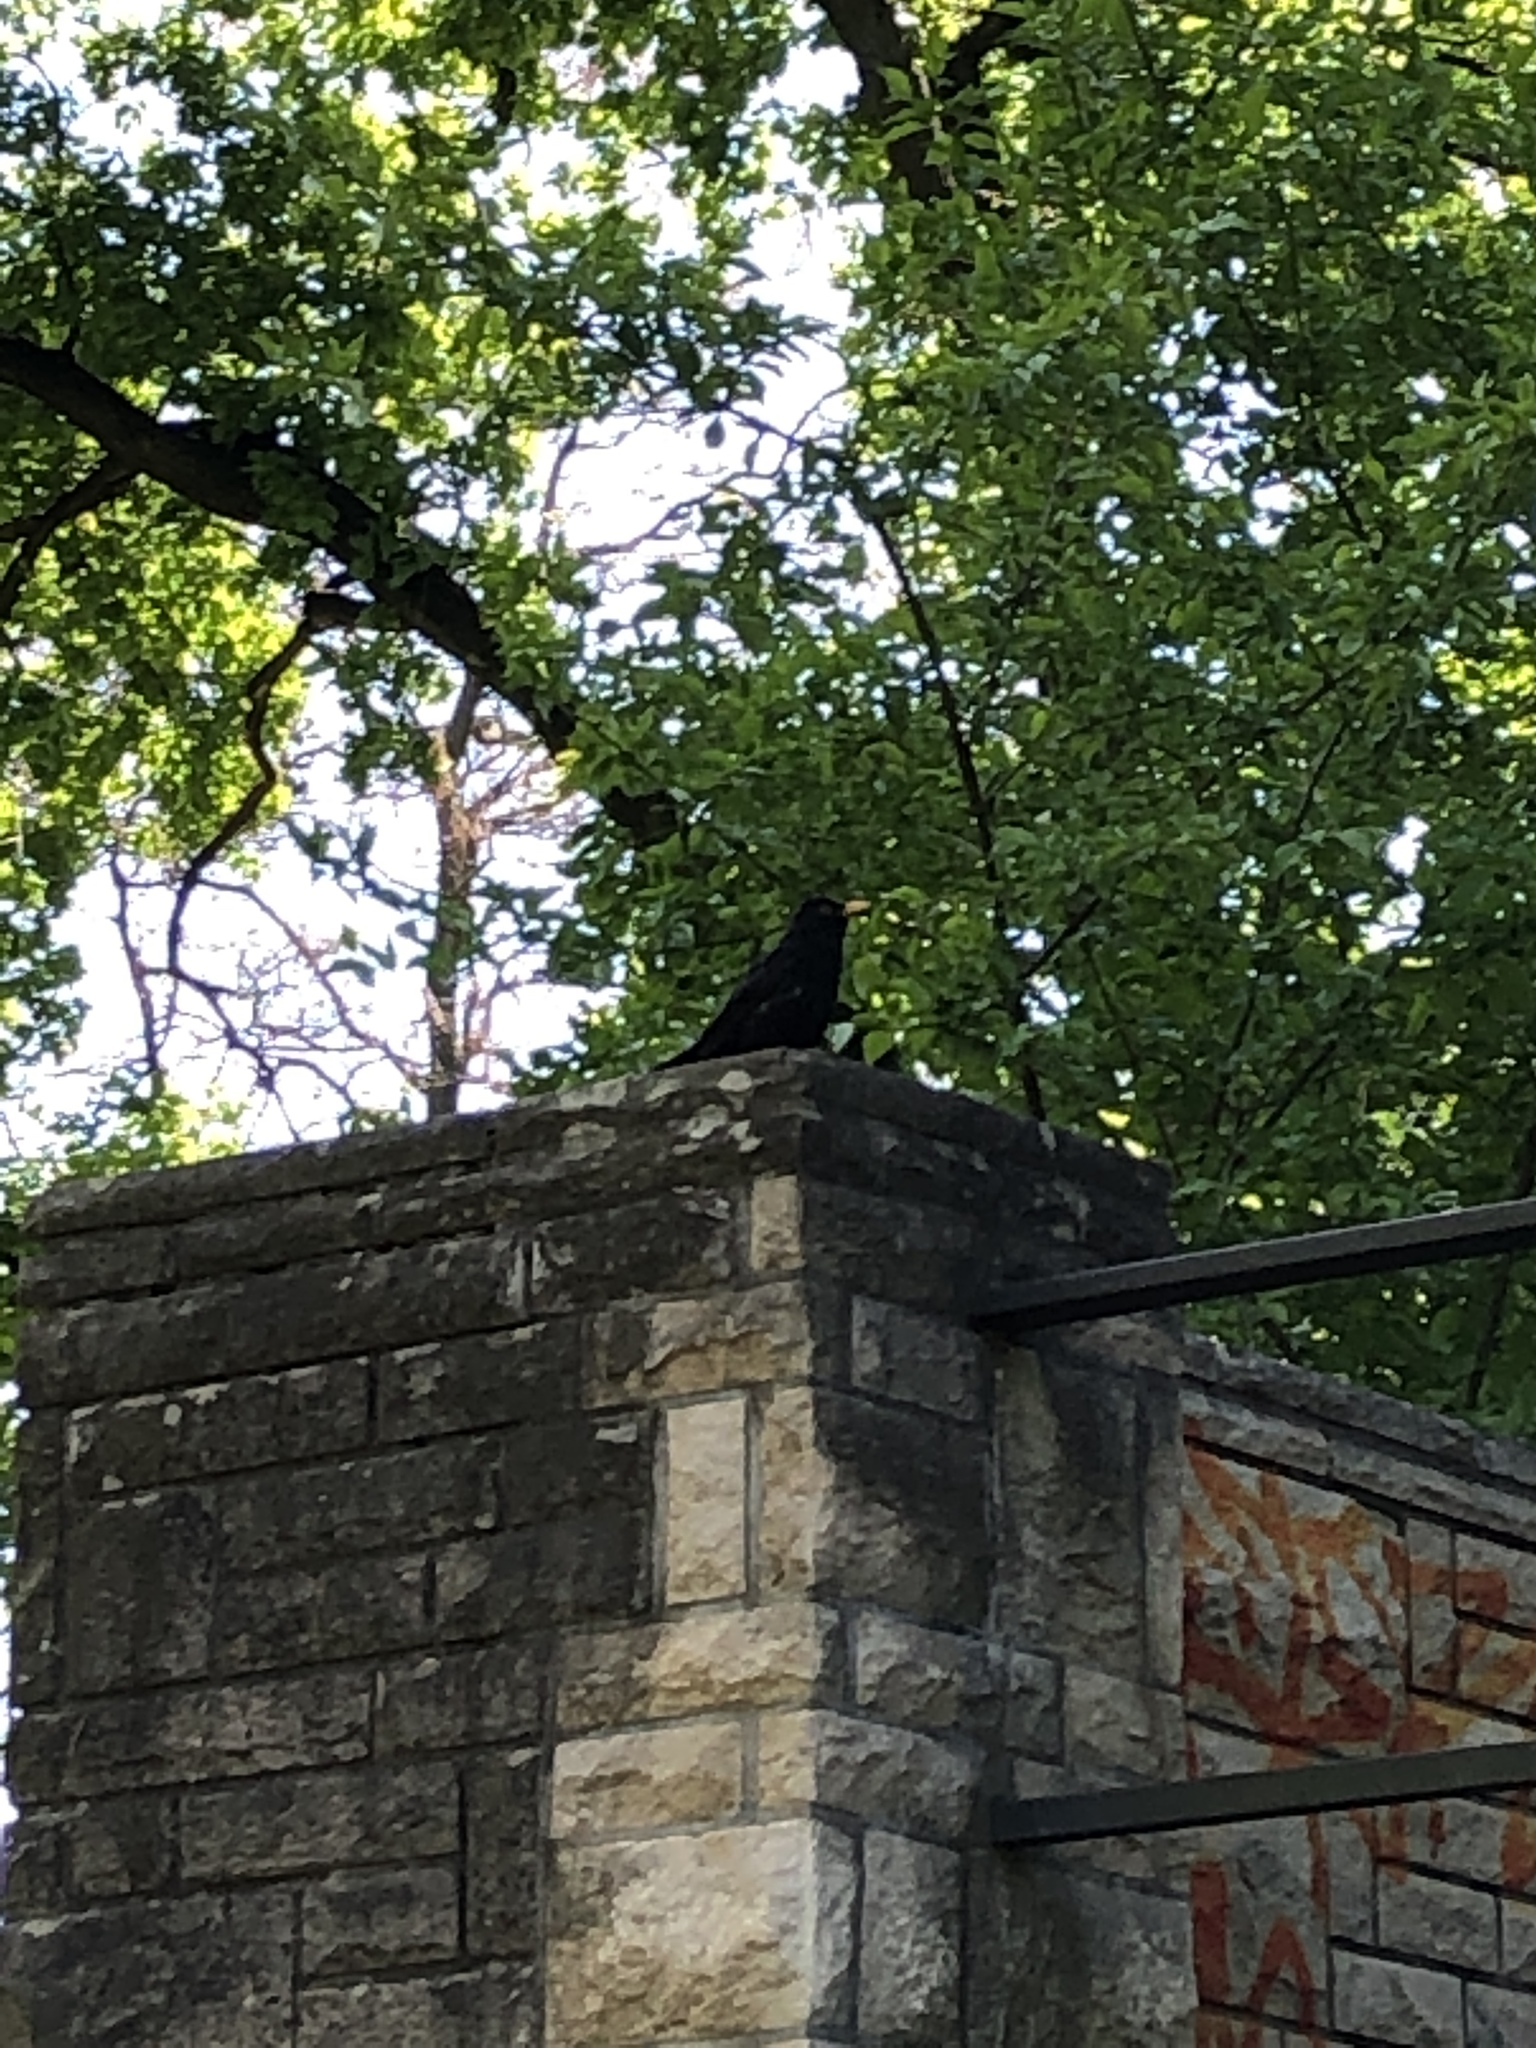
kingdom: Animalia
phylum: Chordata
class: Aves
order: Passeriformes
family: Turdidae
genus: Turdus
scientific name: Turdus merula
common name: Common blackbird
